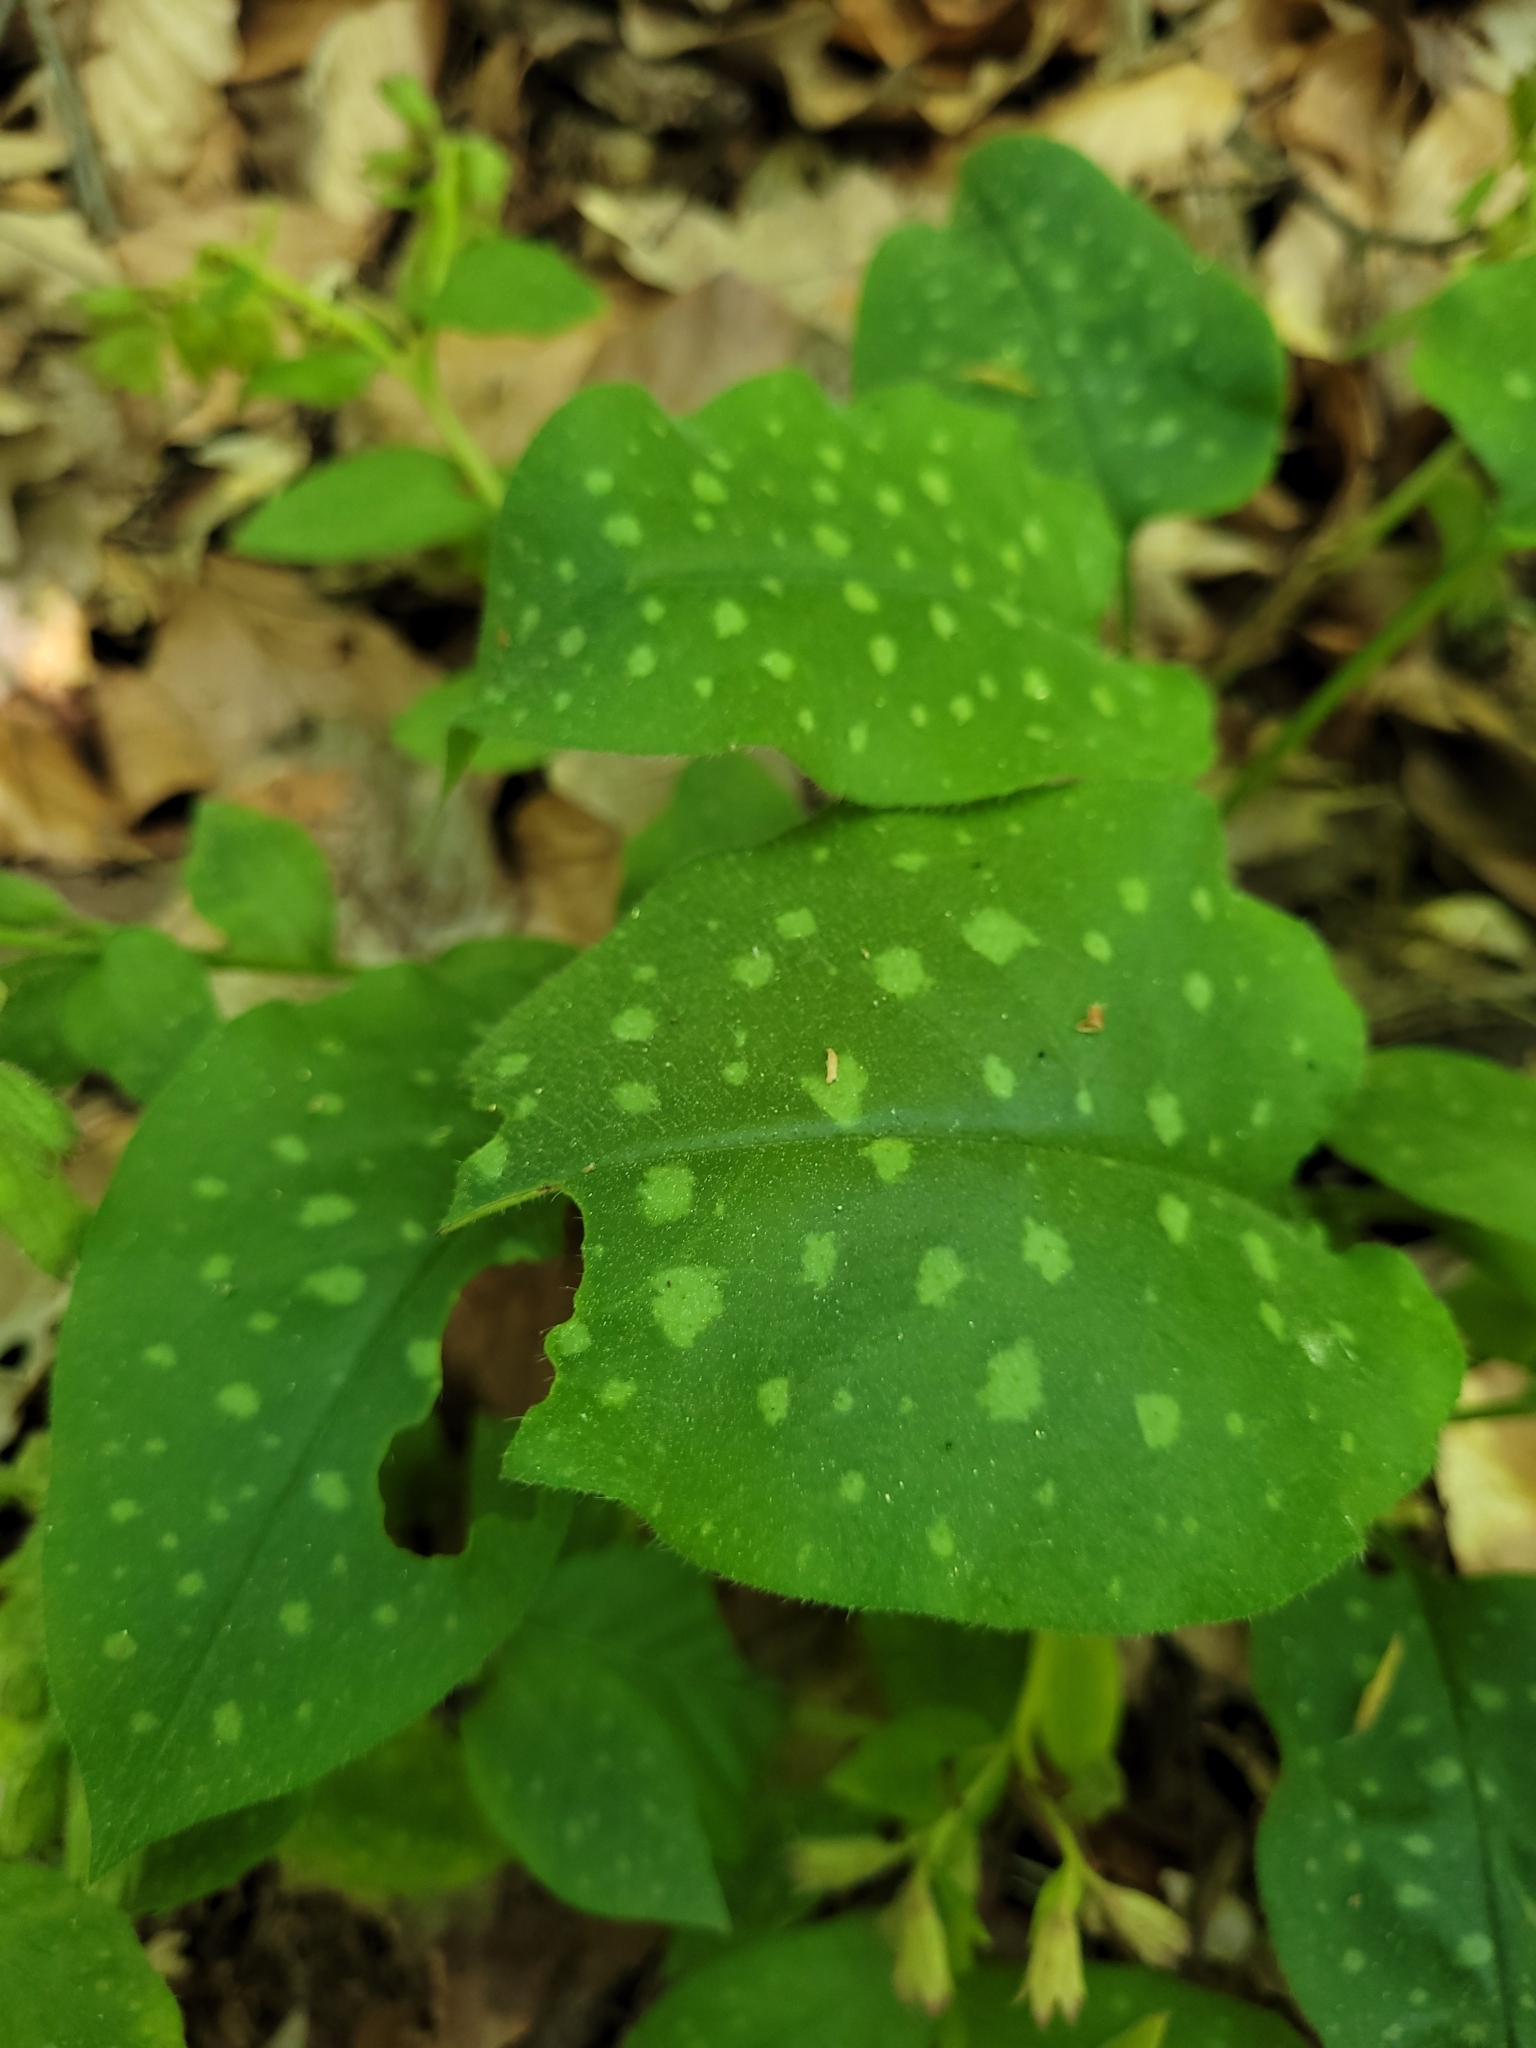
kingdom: Plantae
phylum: Tracheophyta
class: Magnoliopsida
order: Boraginales
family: Boraginaceae
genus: Pulmonaria
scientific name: Pulmonaria officinalis
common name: Lungwort
